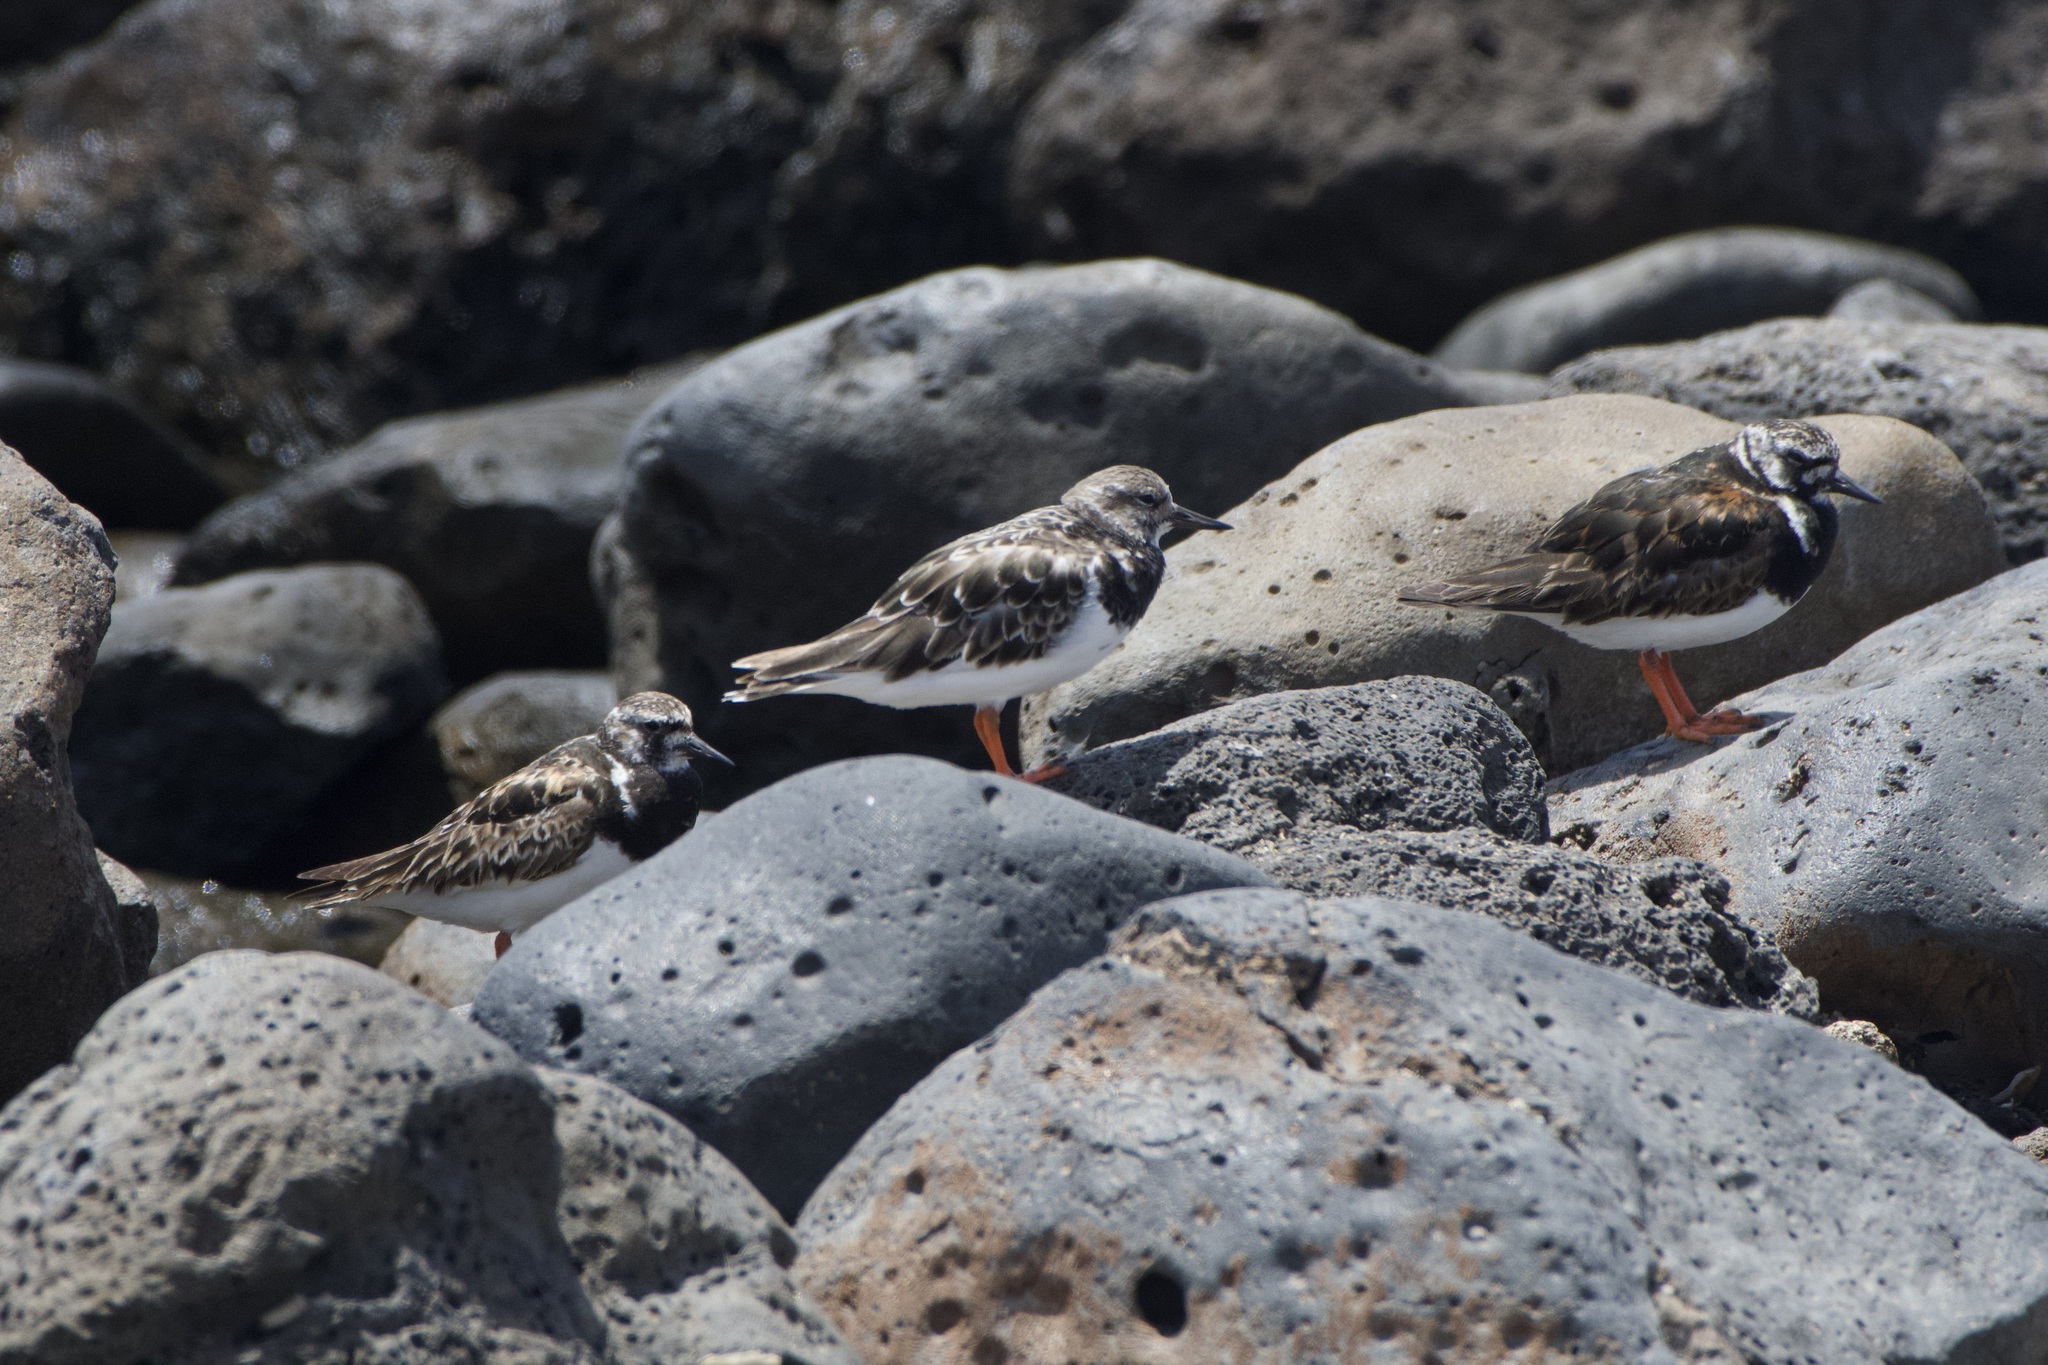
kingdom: Animalia
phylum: Chordata
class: Aves
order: Charadriiformes
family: Scolopacidae
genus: Arenaria
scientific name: Arenaria interpres
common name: Ruddy turnstone
